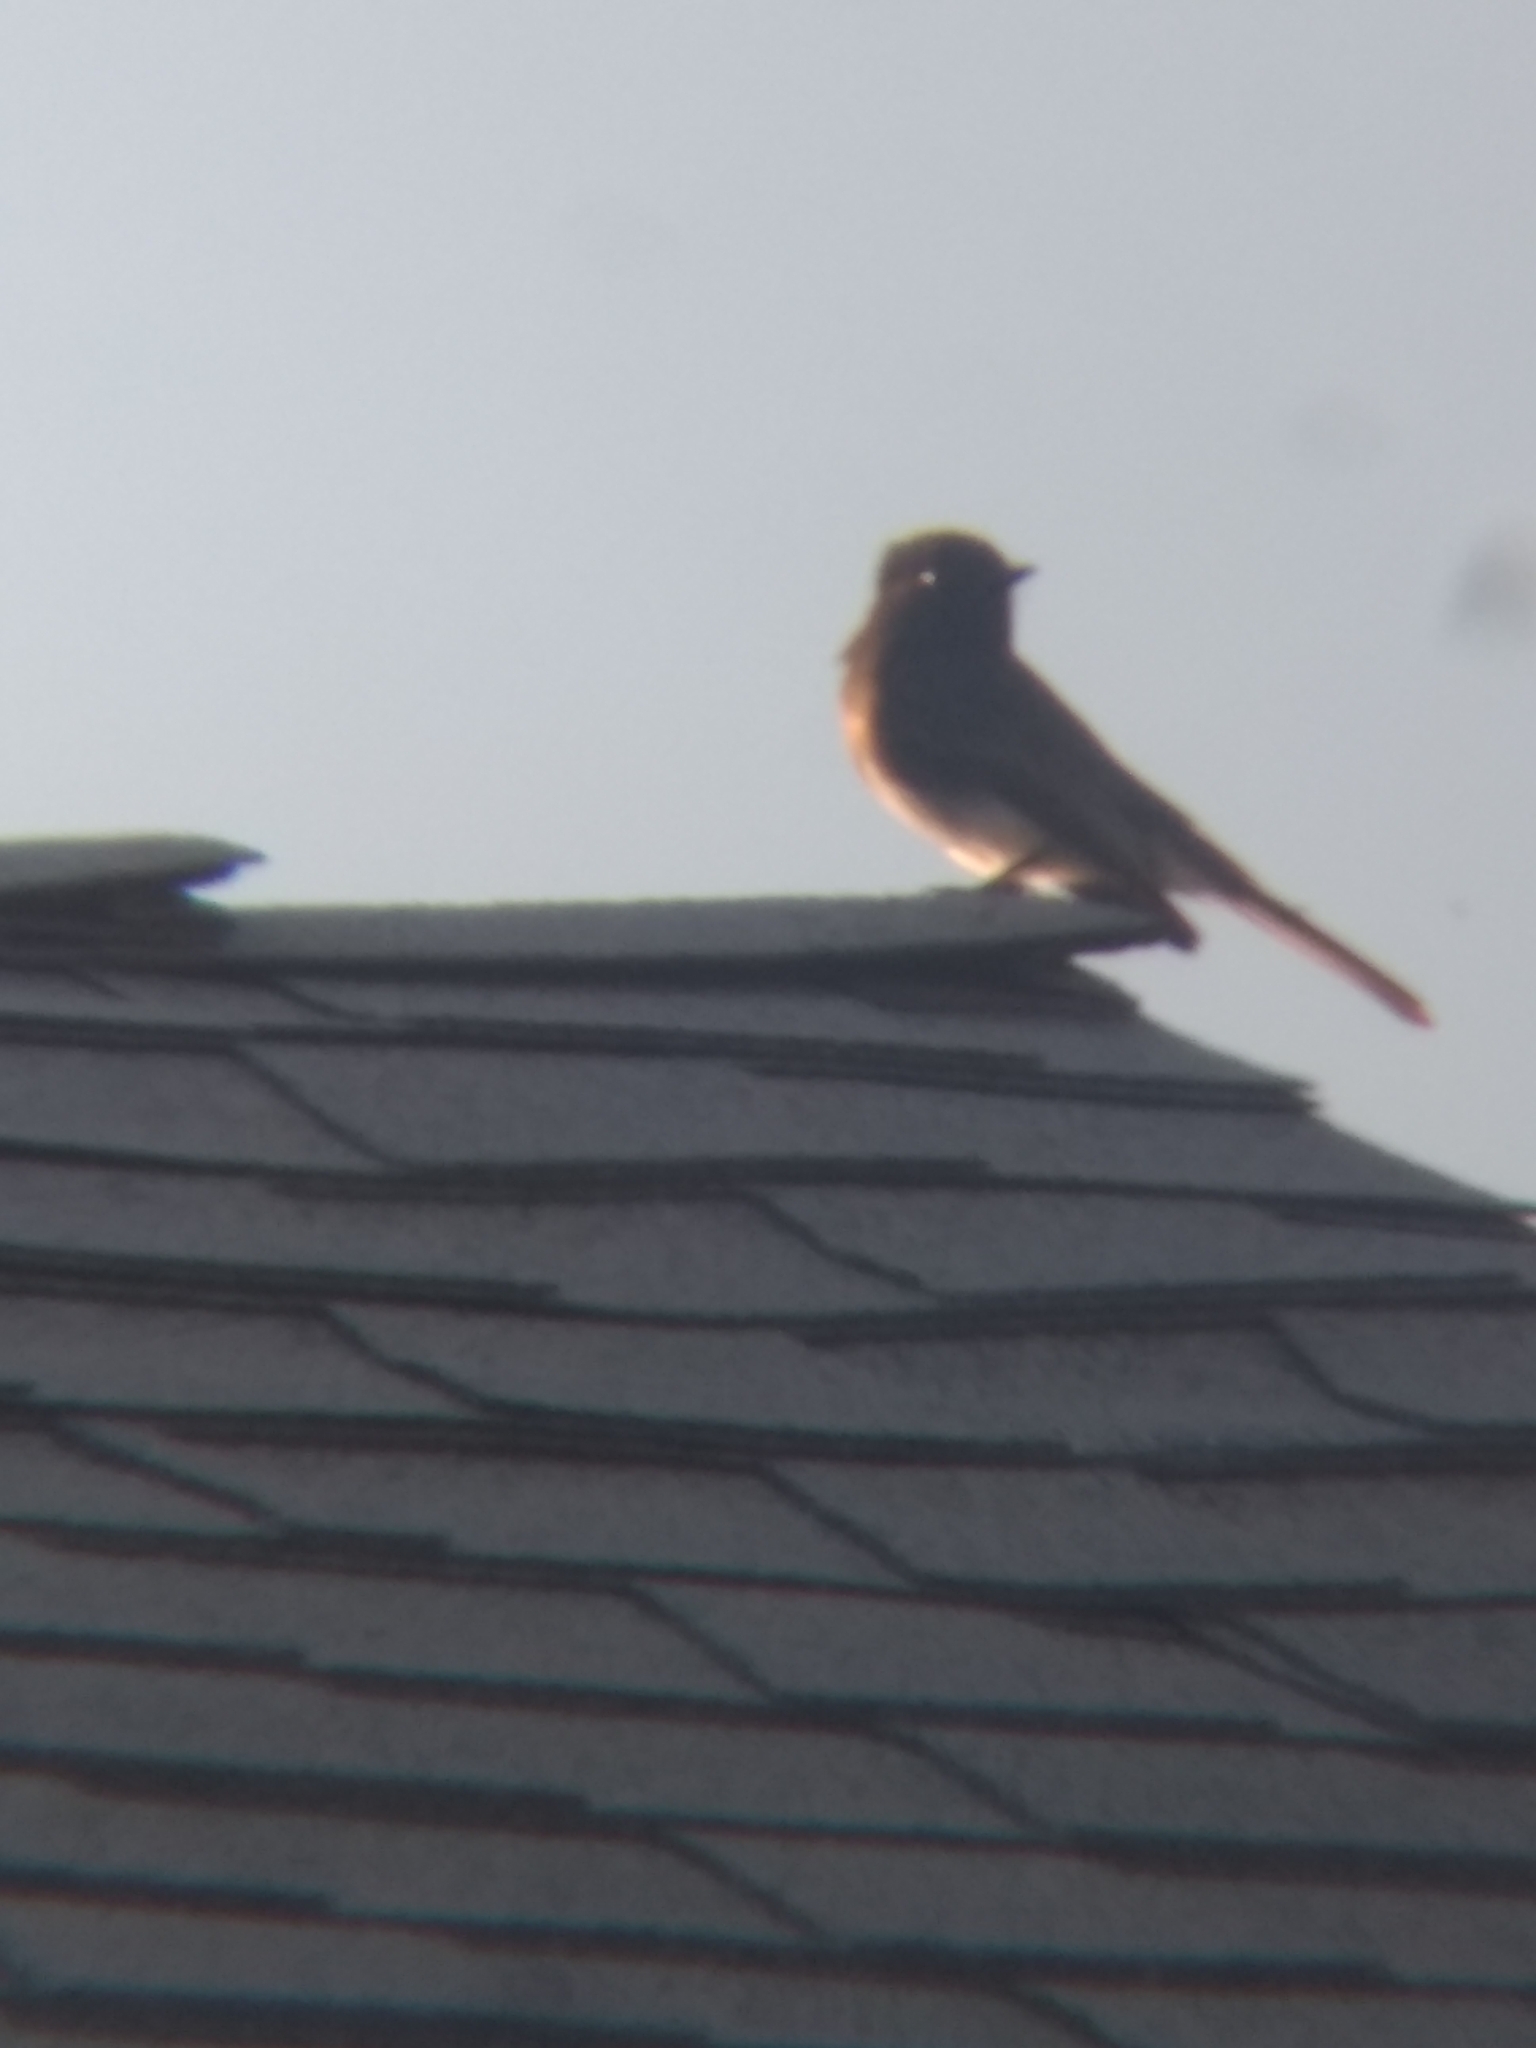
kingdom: Animalia
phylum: Chordata
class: Aves
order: Passeriformes
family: Tyrannidae
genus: Sayornis
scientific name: Sayornis nigricans
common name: Black phoebe
